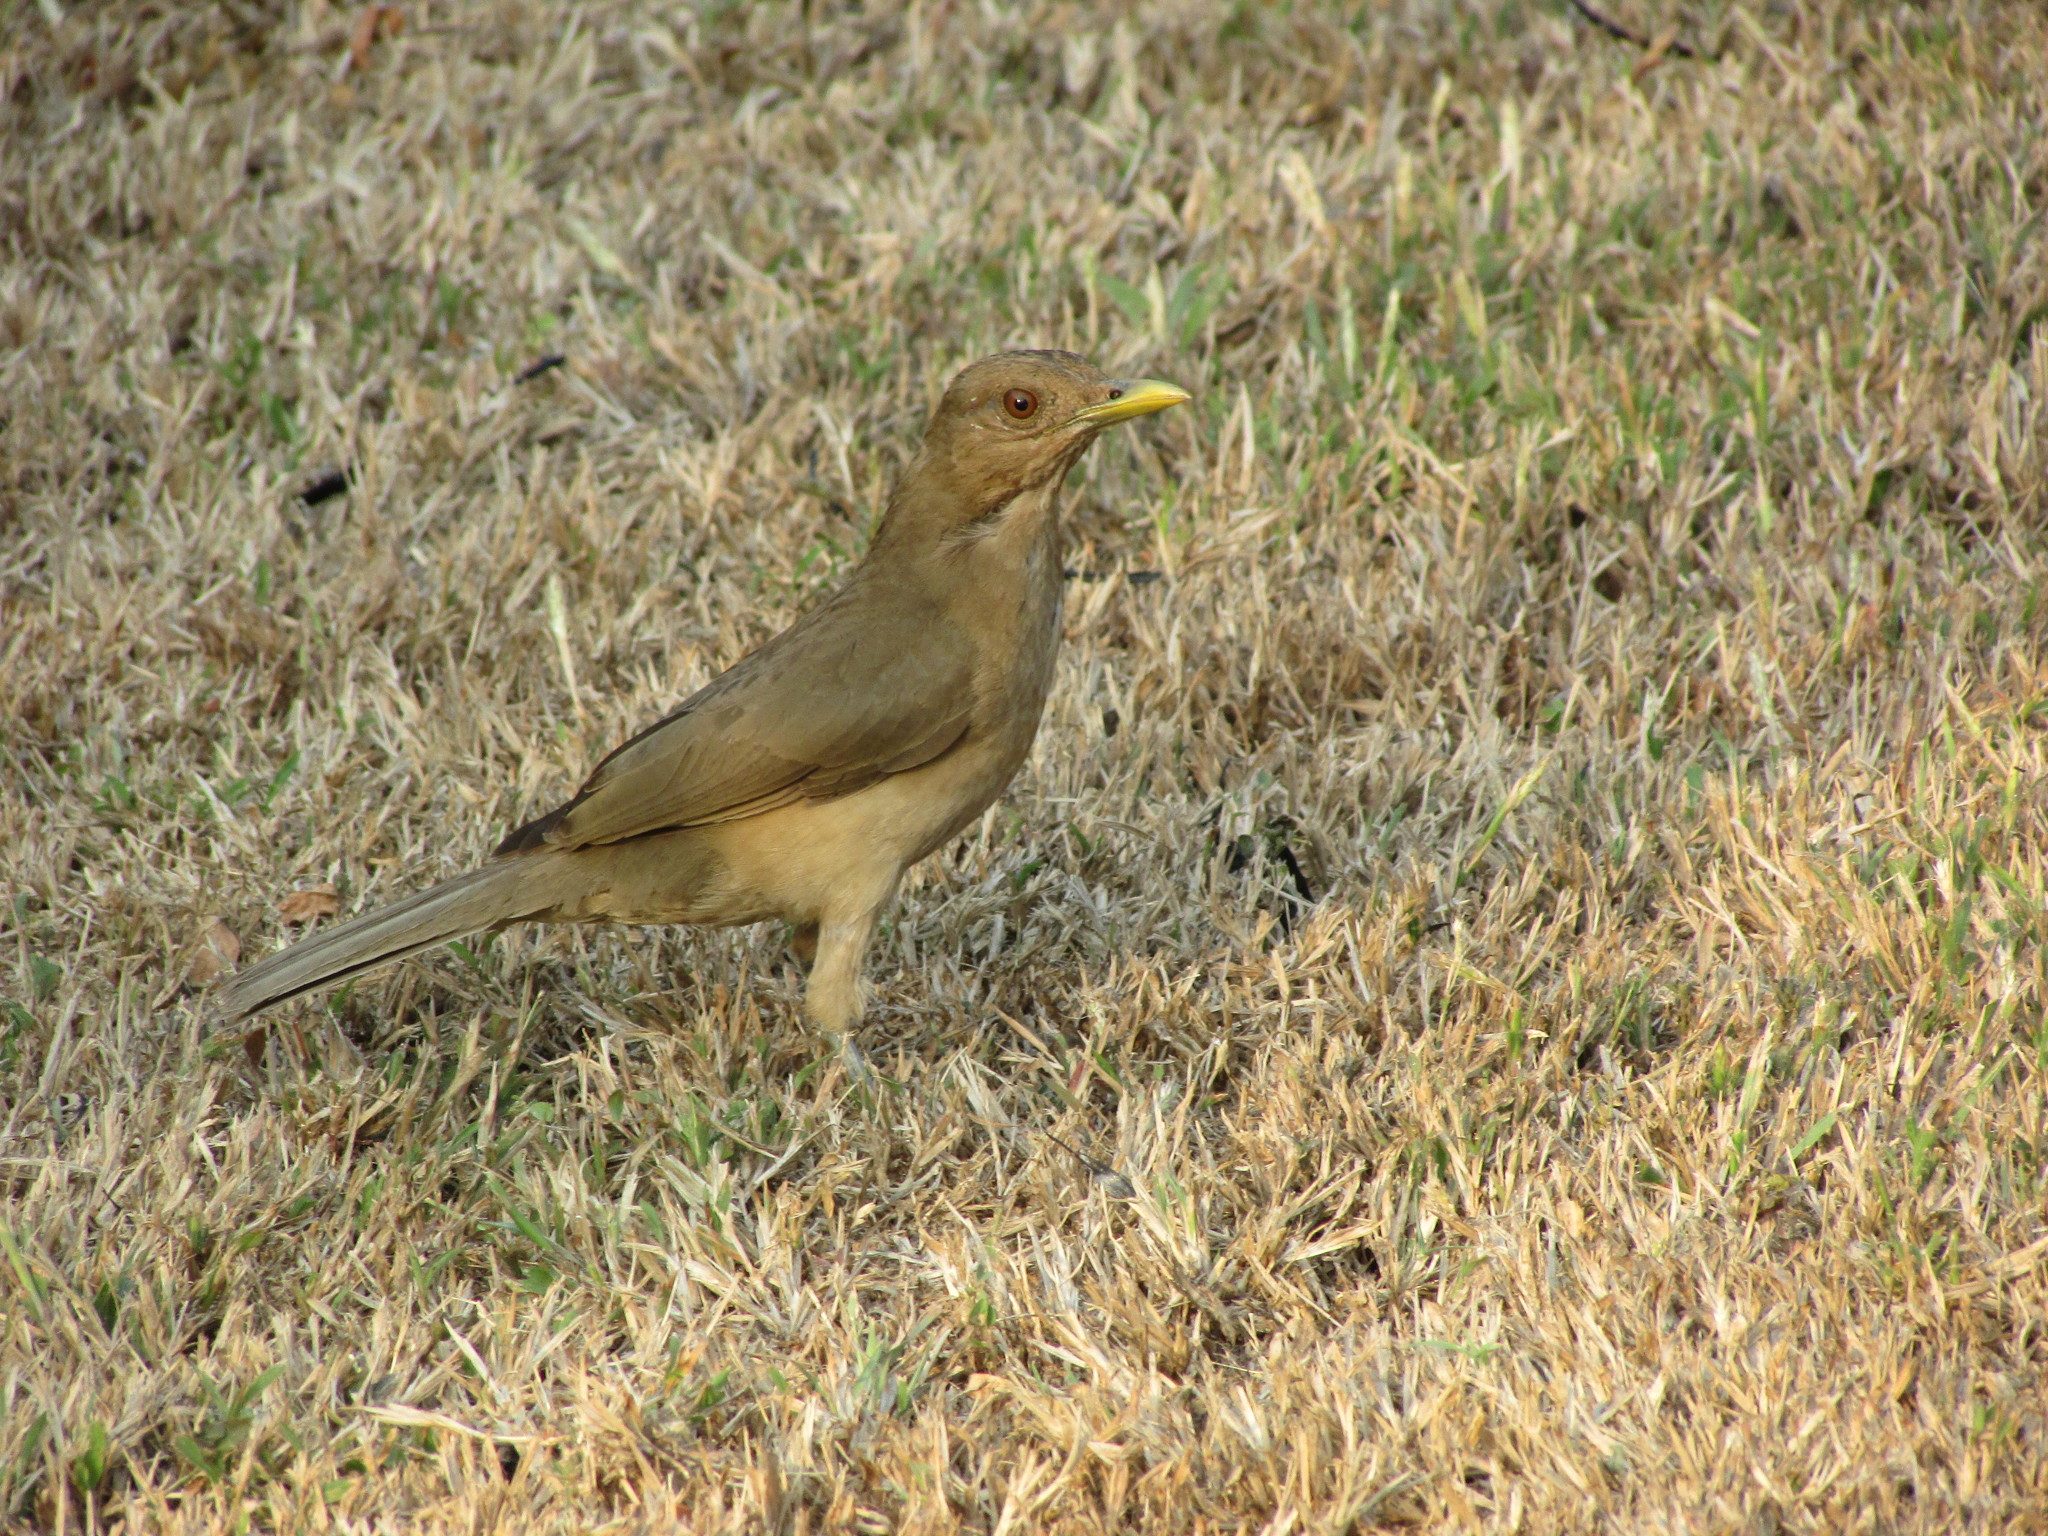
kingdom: Animalia
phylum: Chordata
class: Aves
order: Passeriformes
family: Turdidae
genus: Turdus
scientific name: Turdus grayi
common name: Clay-colored thrush
